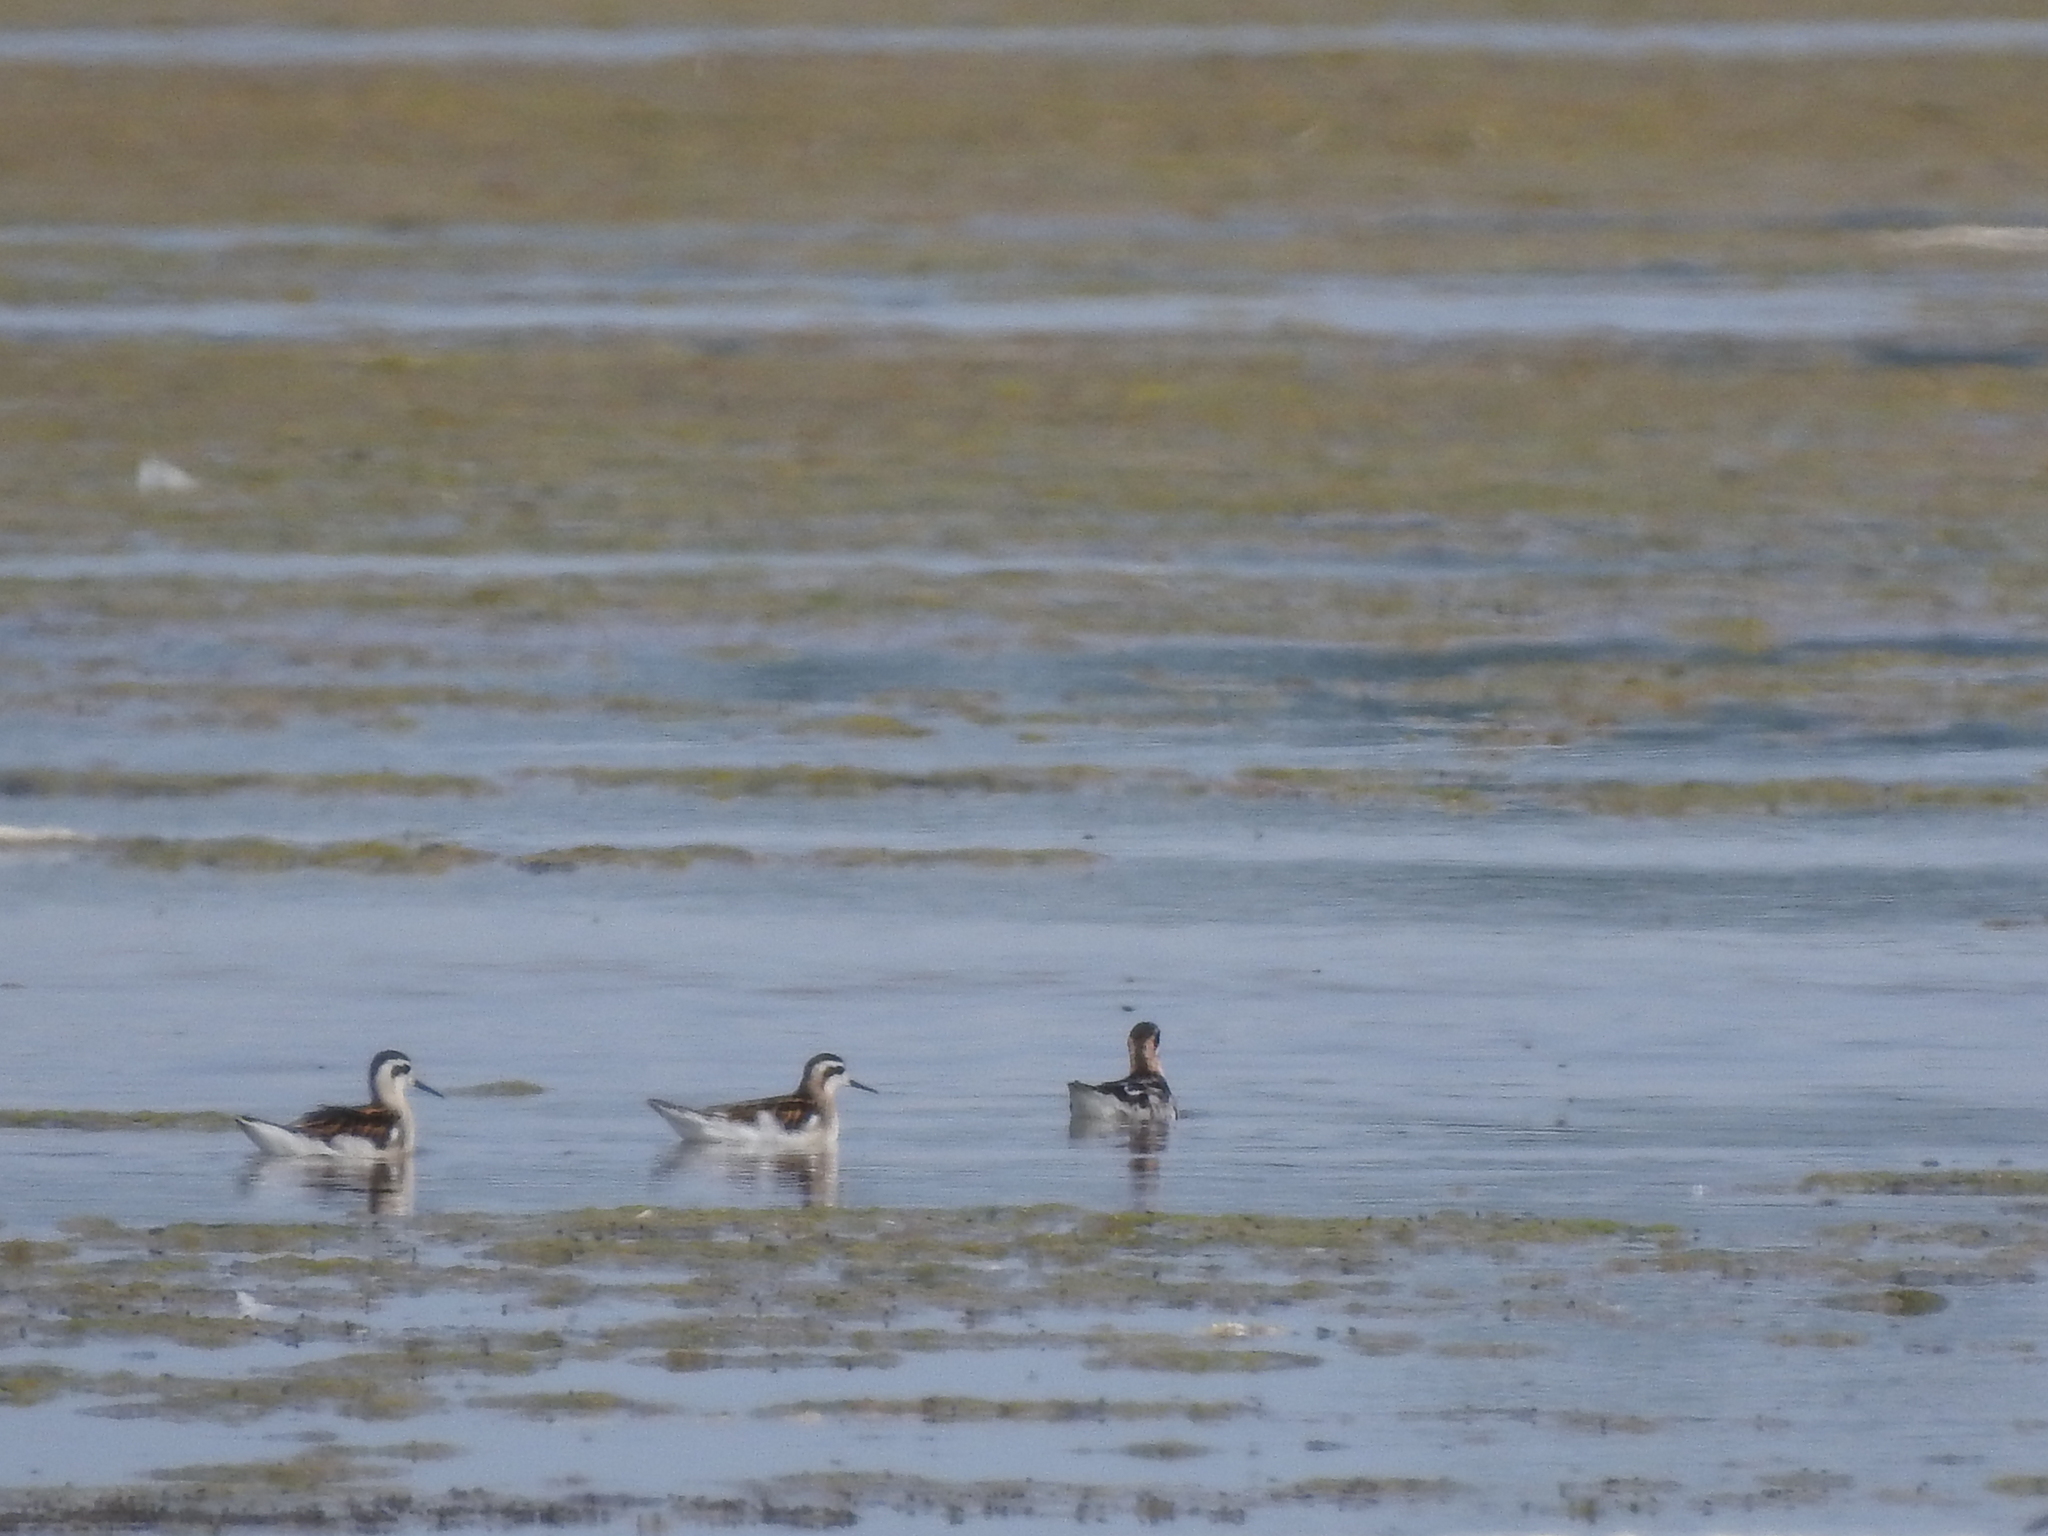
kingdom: Animalia
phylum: Chordata
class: Aves
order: Charadriiformes
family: Scolopacidae
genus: Phalaropus
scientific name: Phalaropus lobatus
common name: Red-necked phalarope
